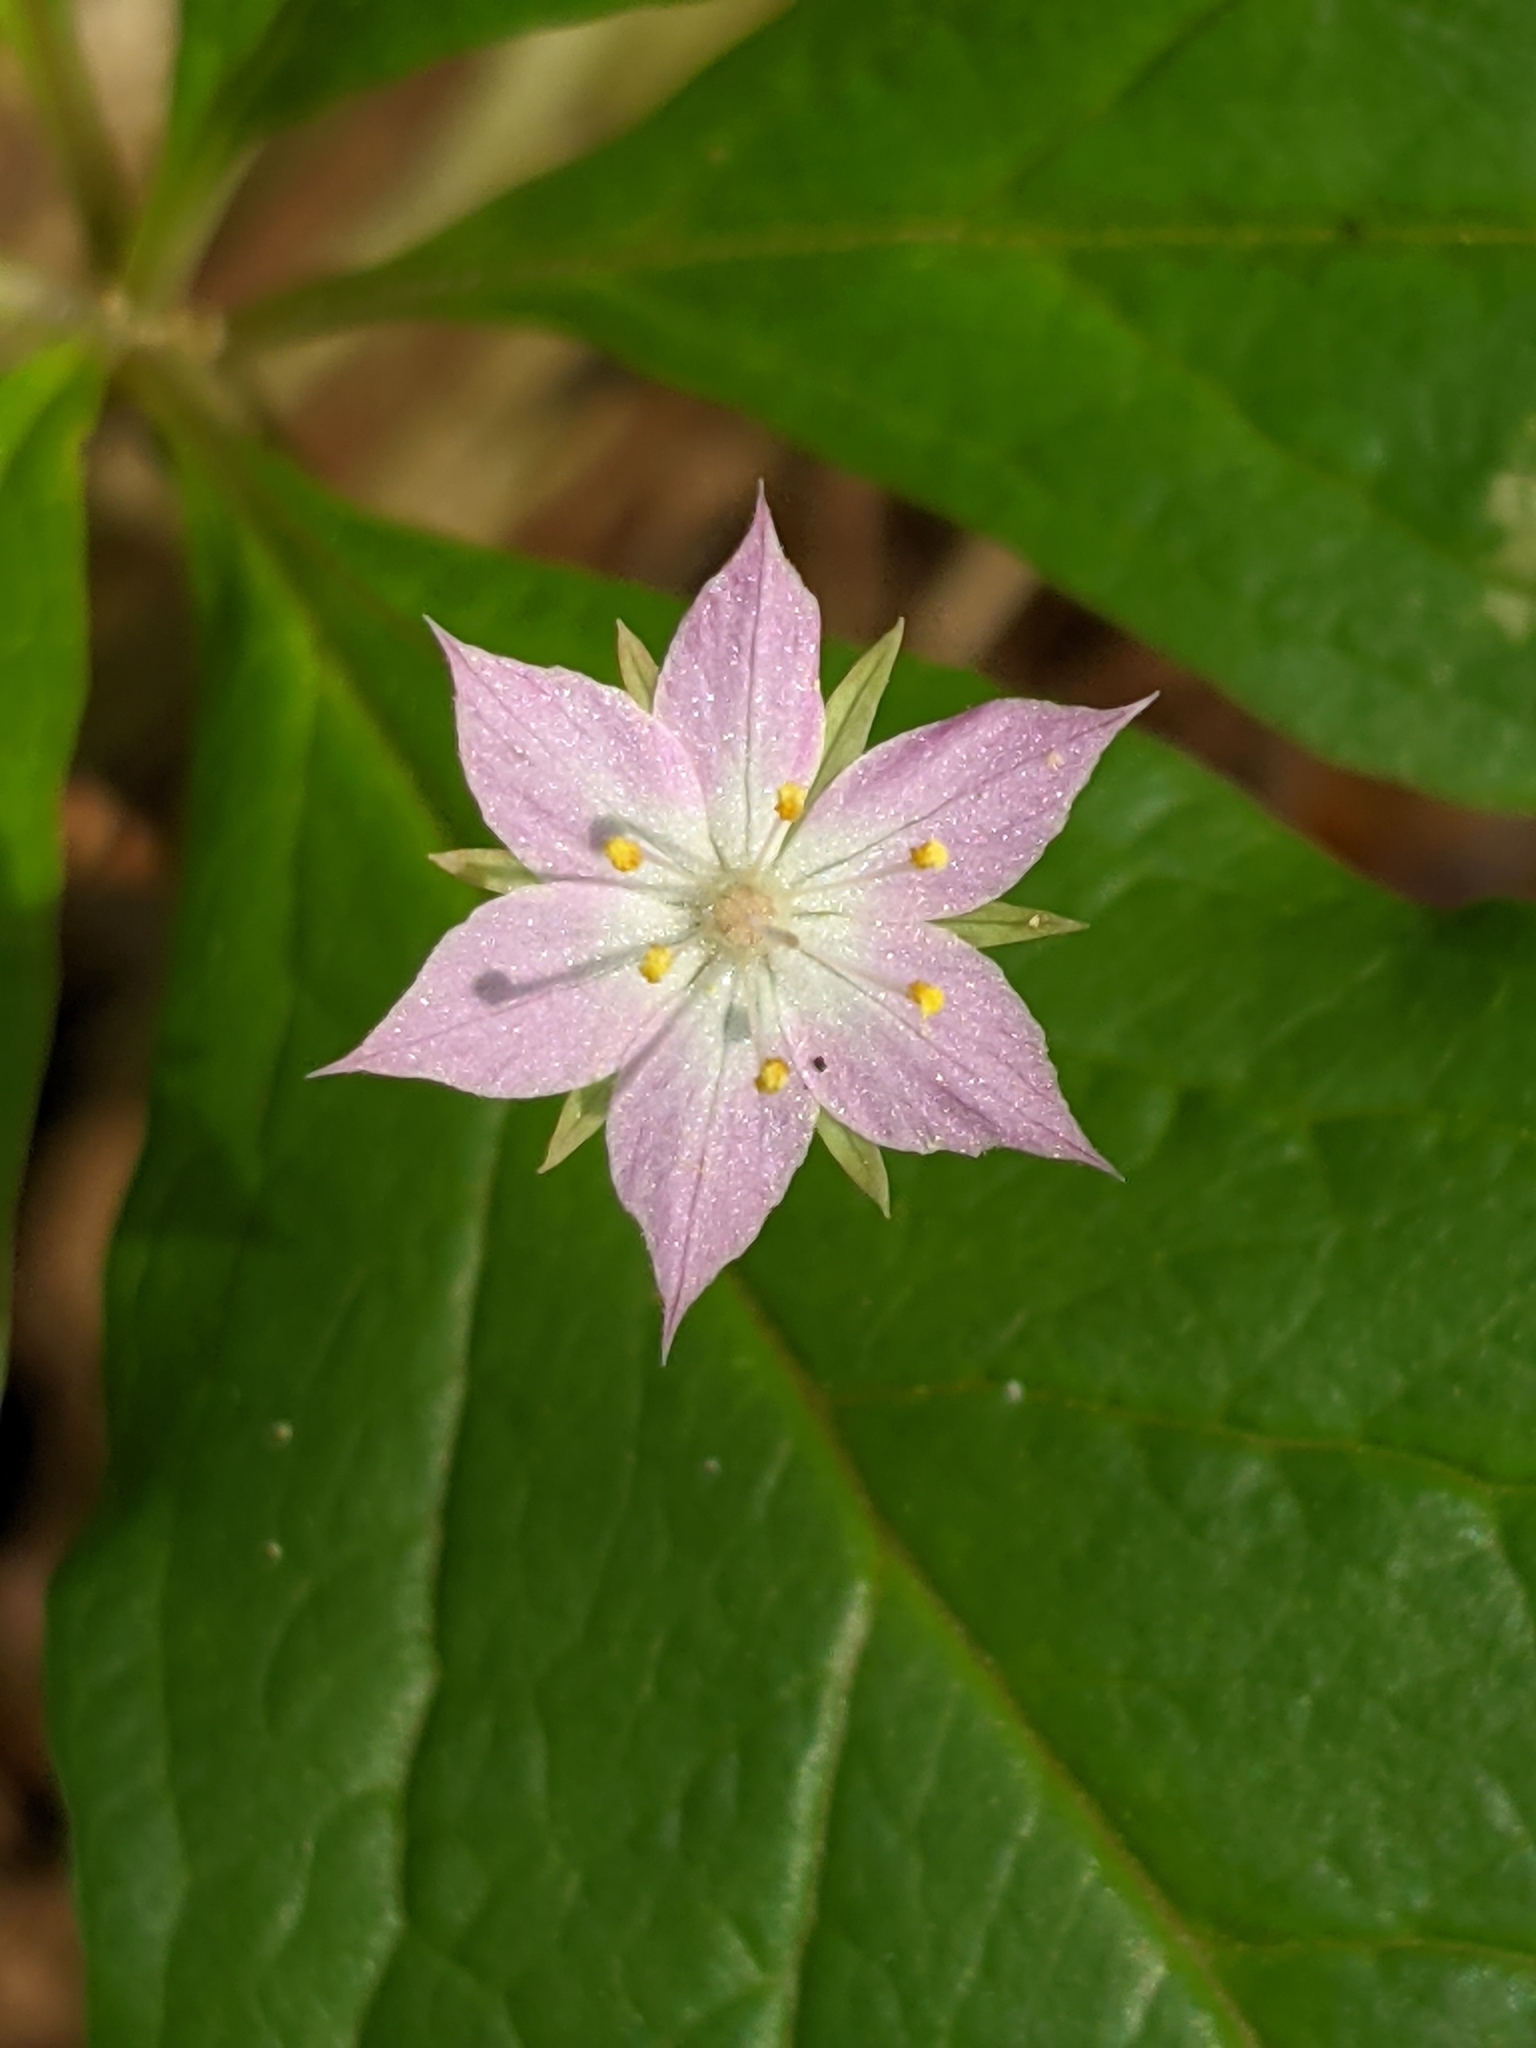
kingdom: Plantae
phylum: Tracheophyta
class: Magnoliopsida
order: Ericales
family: Primulaceae
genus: Lysimachia
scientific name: Lysimachia latifolia
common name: Pacific starflower
